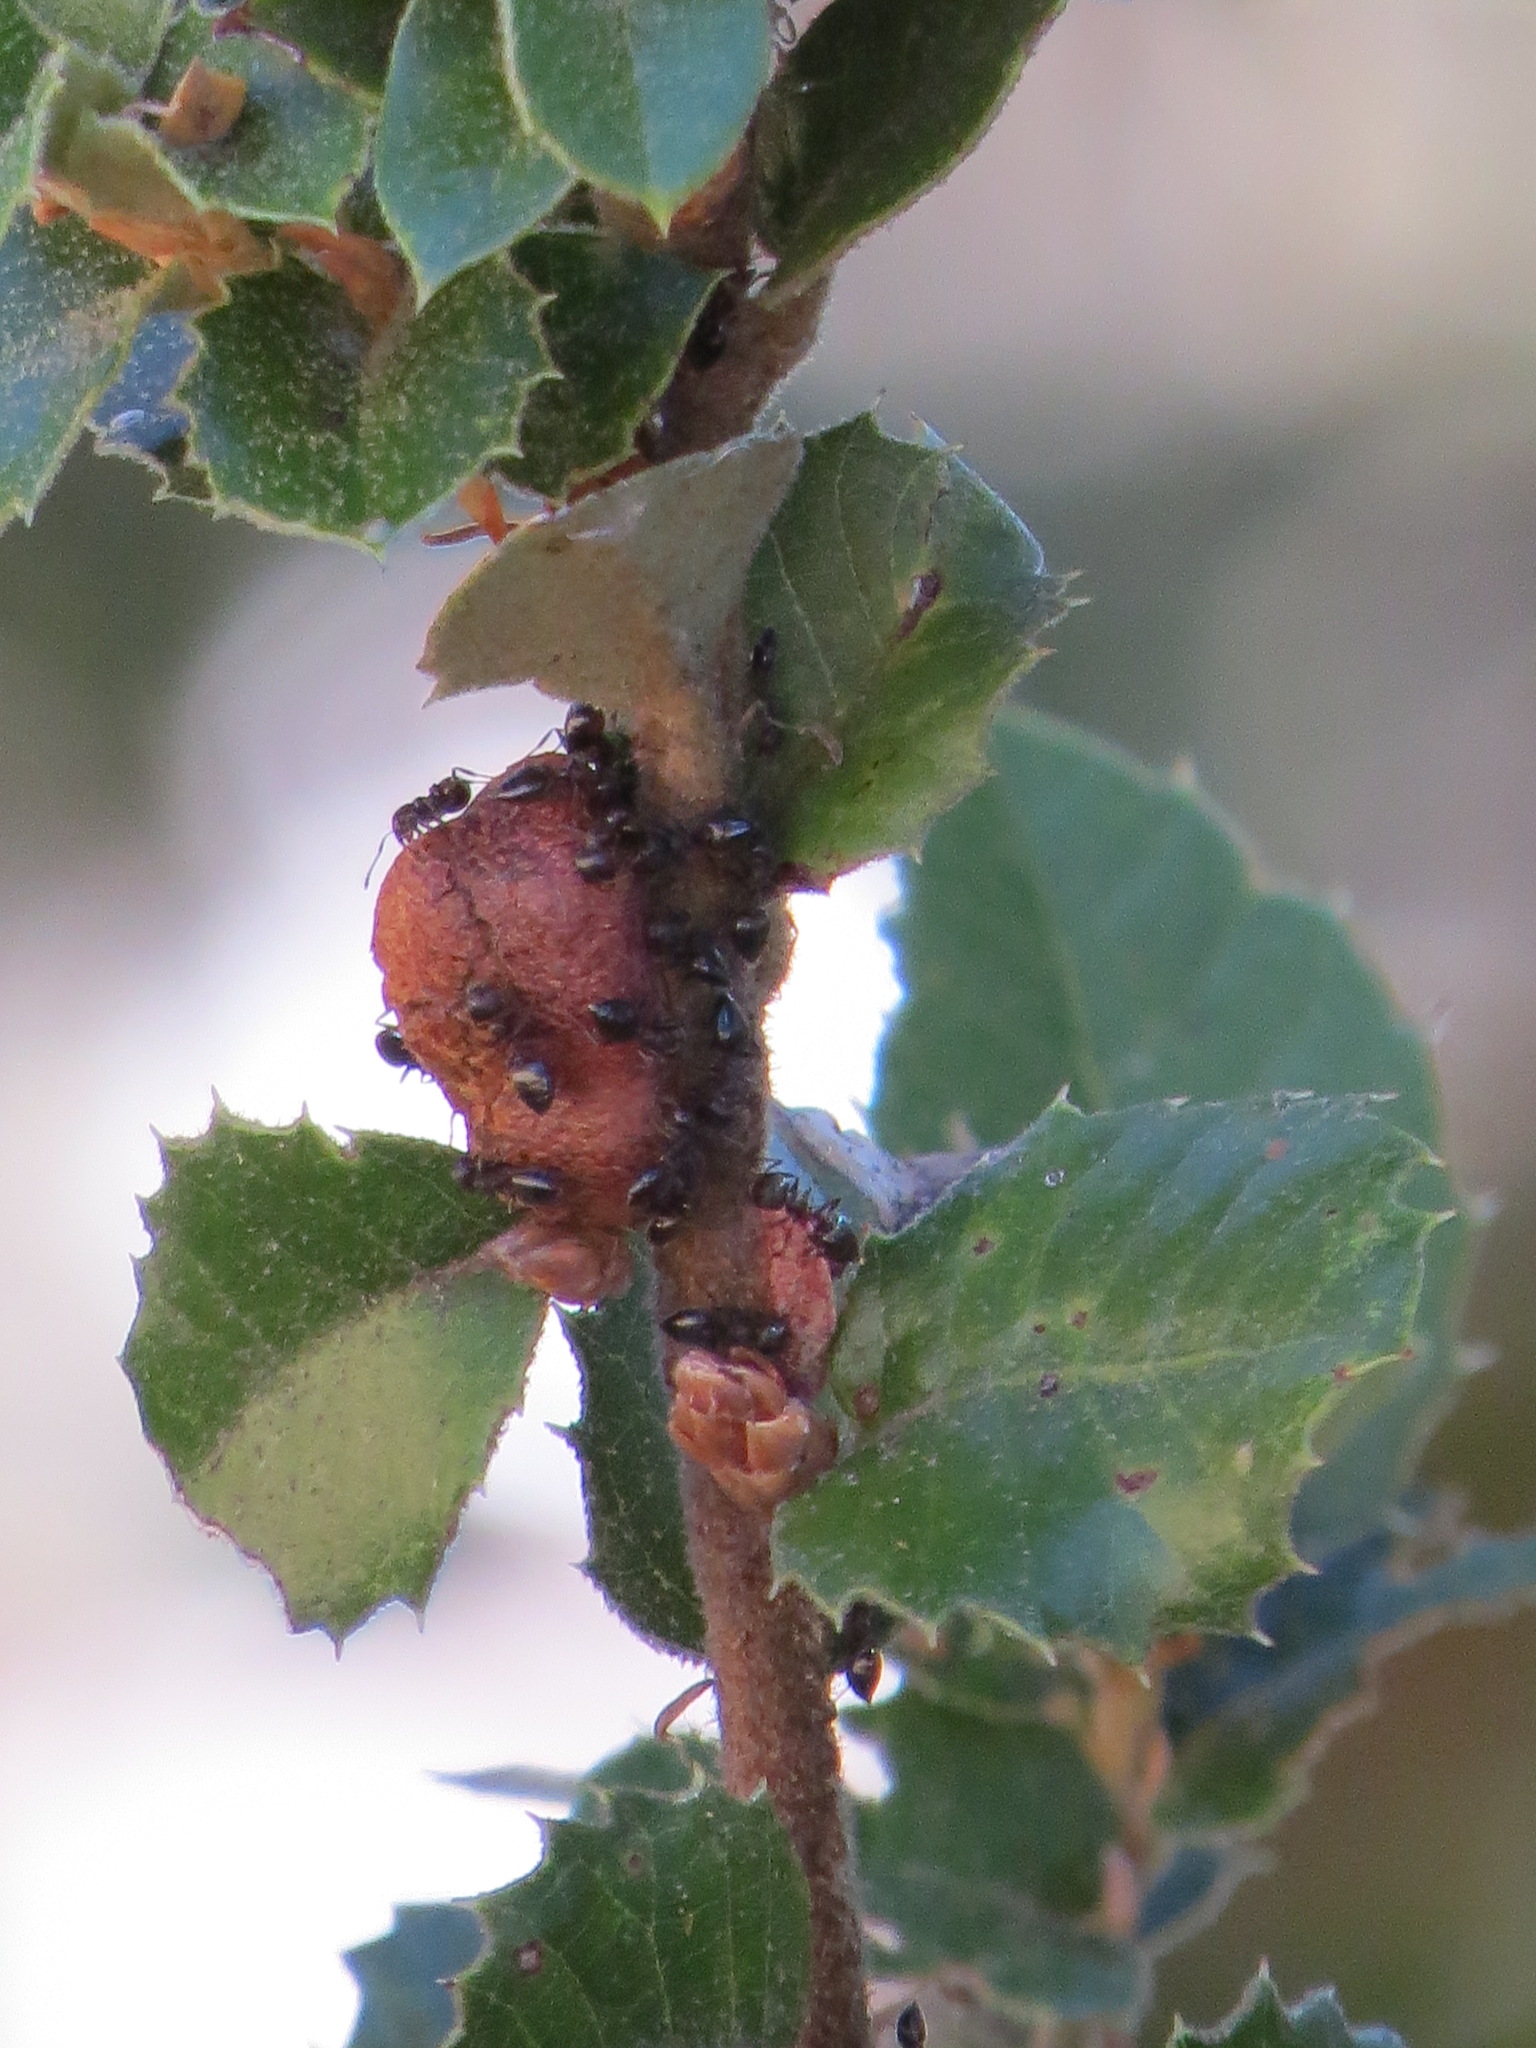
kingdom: Animalia
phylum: Arthropoda
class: Insecta
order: Hymenoptera
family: Cynipidae
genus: Disholandricus
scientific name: Disholandricus
